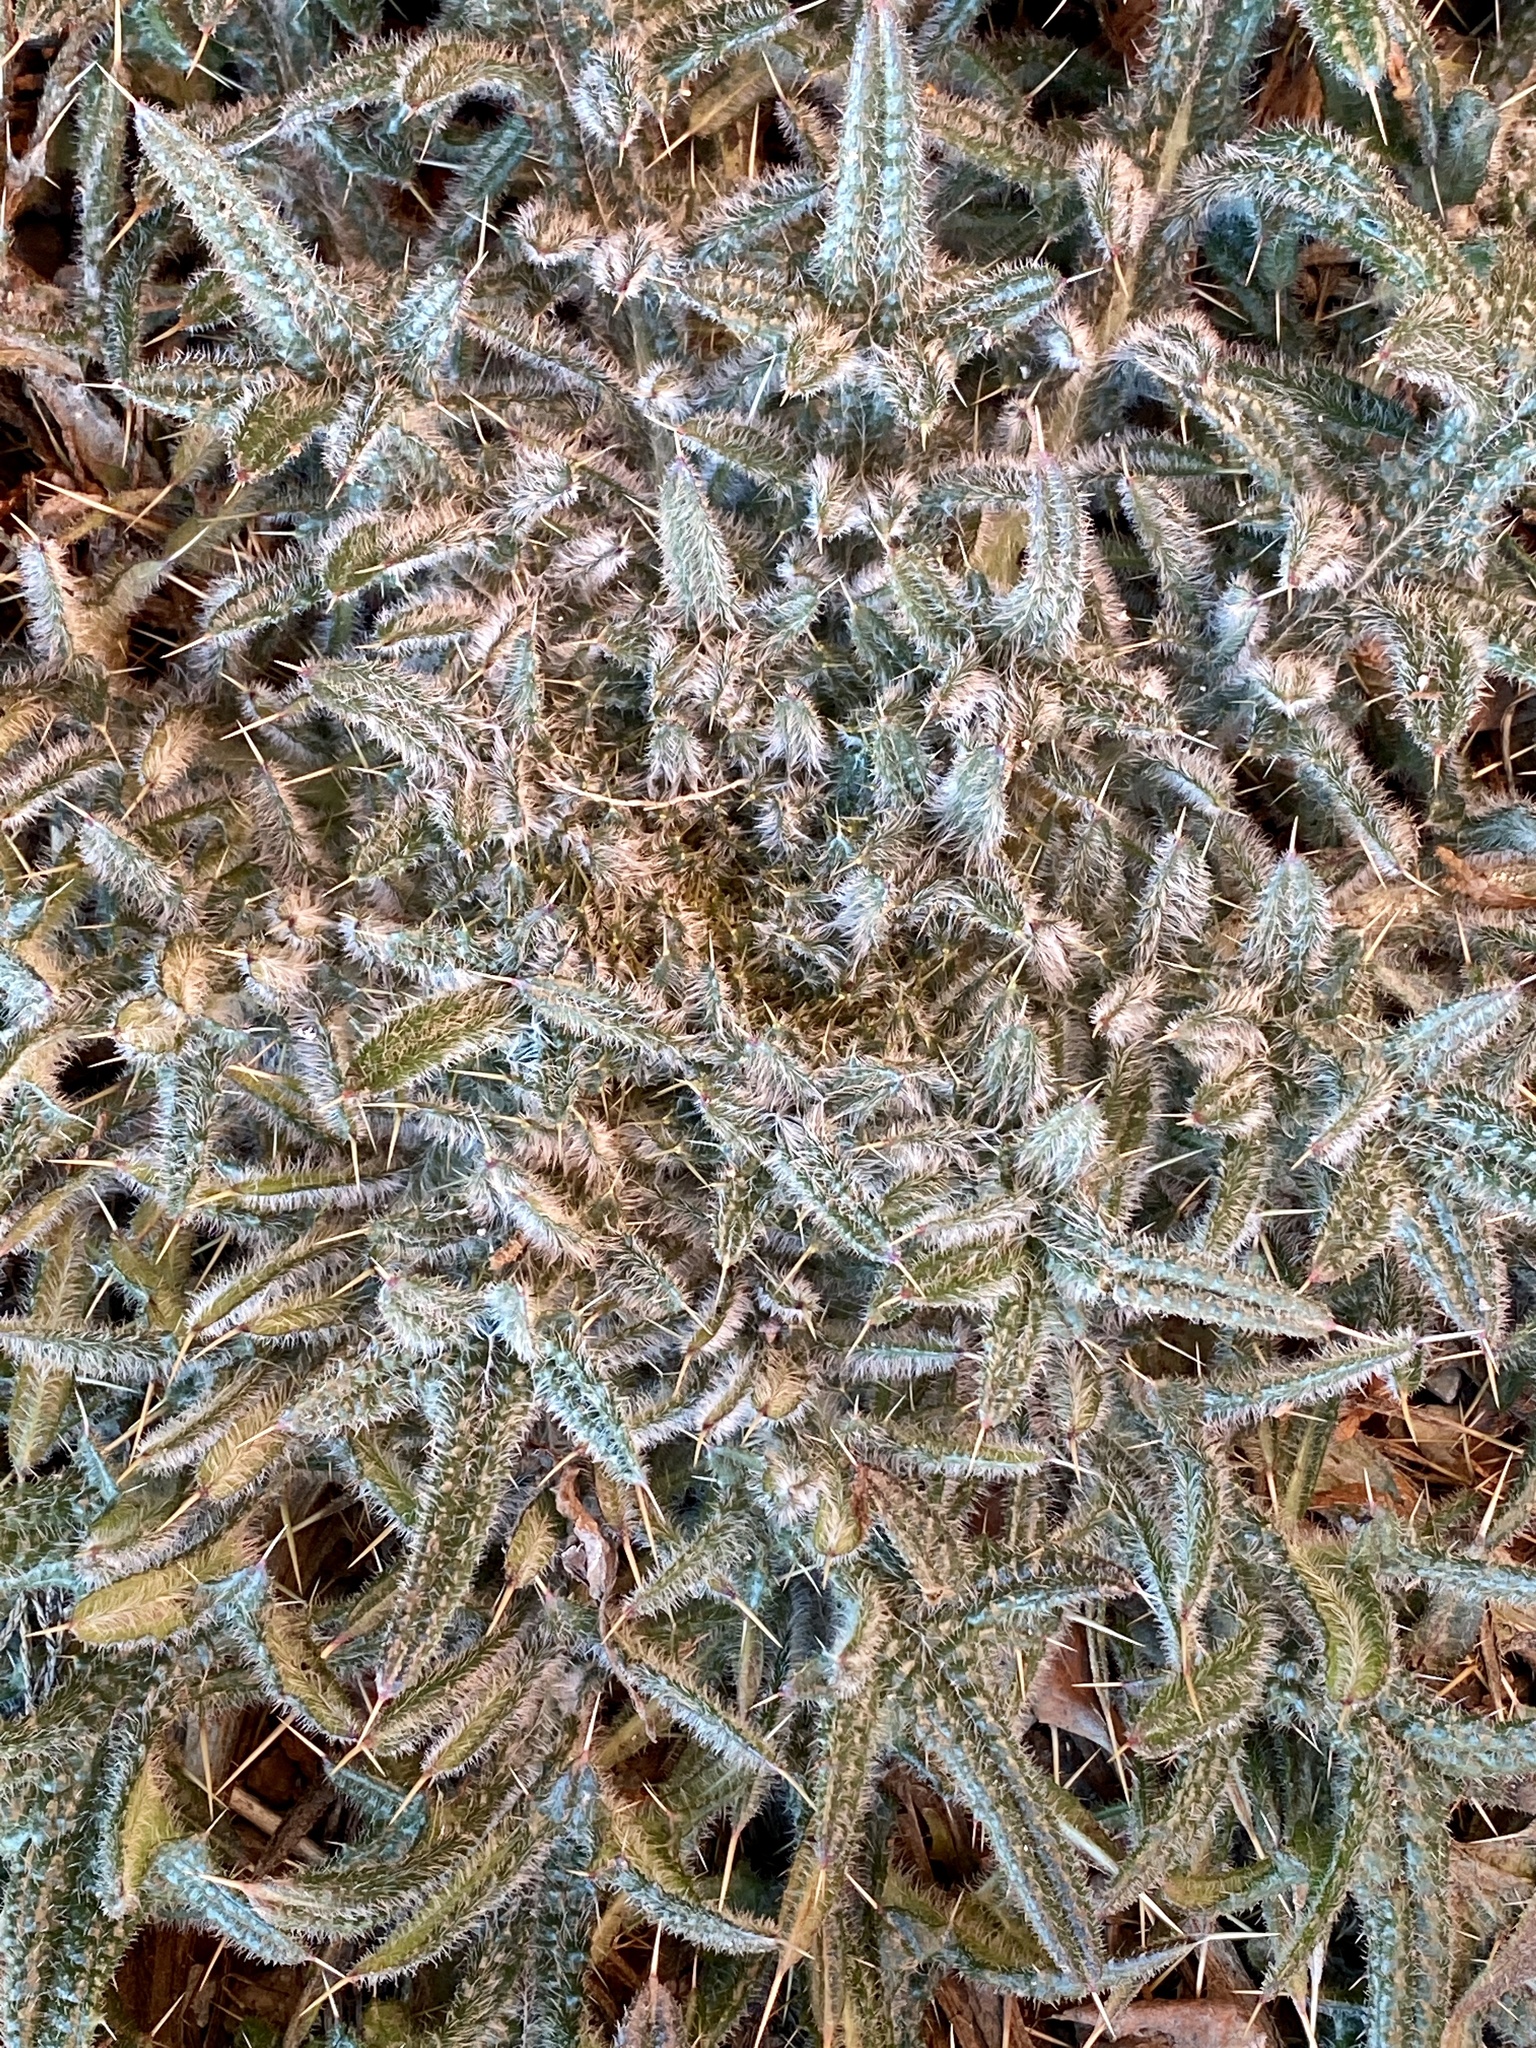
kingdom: Plantae
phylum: Tracheophyta
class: Magnoliopsida
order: Asterales
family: Asteraceae
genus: Cirsium
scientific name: Cirsium vulgare
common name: Bull thistle
